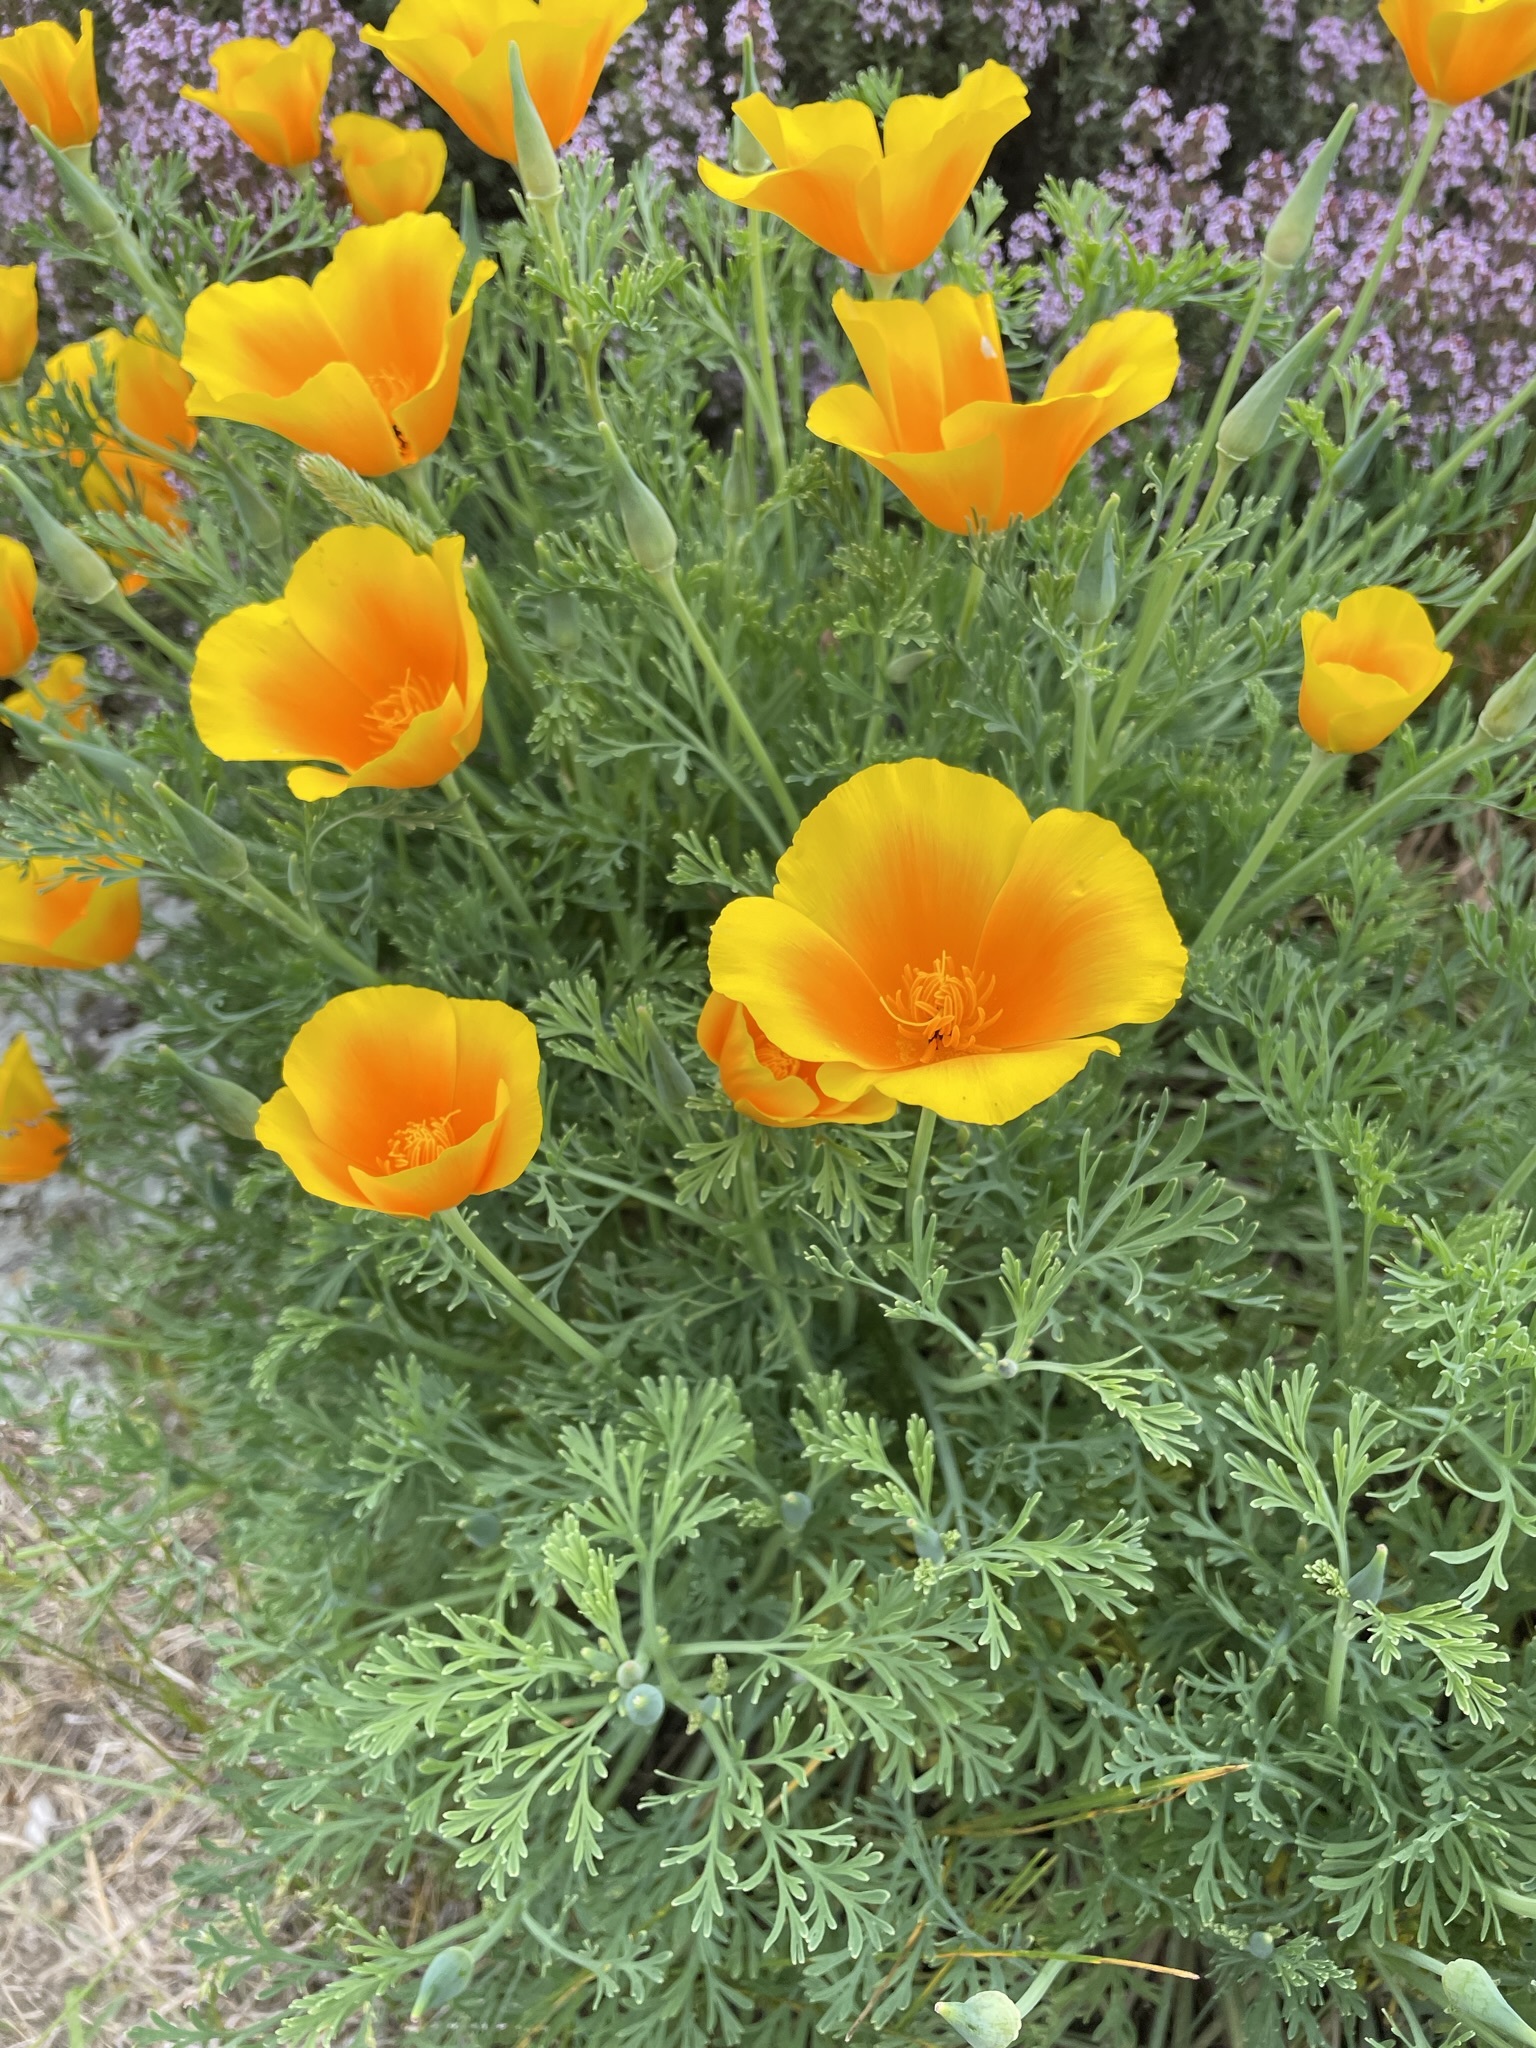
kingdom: Plantae
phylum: Tracheophyta
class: Magnoliopsida
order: Ranunculales
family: Papaveraceae
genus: Eschscholzia
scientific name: Eschscholzia californica
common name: California poppy
